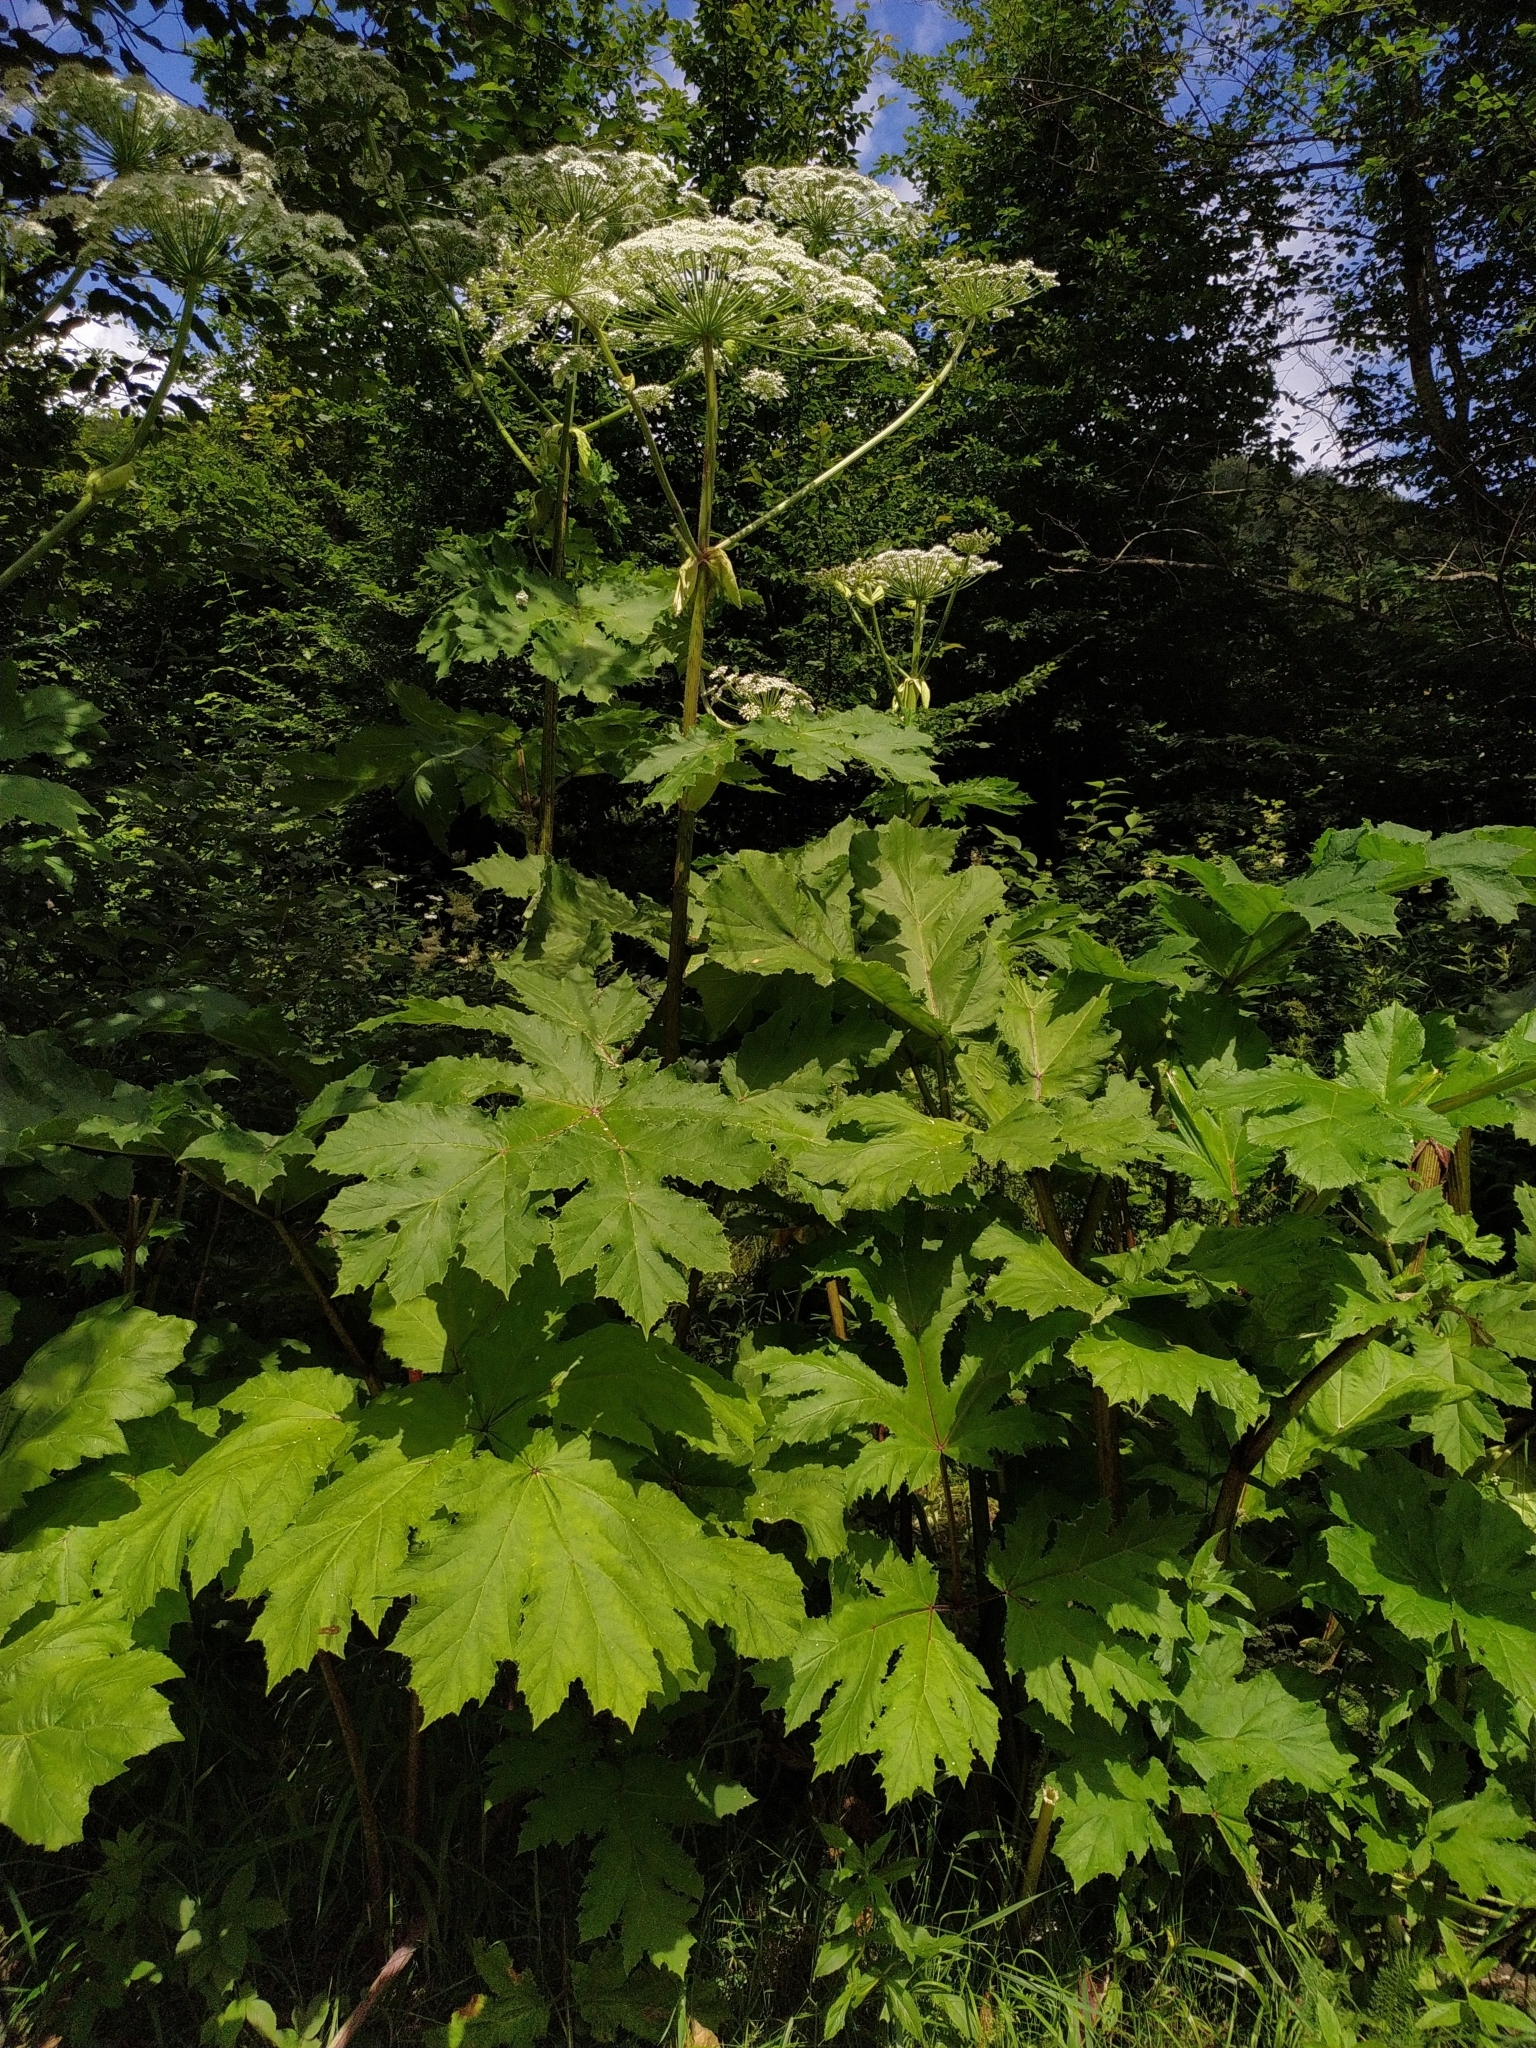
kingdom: Plantae
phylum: Tracheophyta
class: Magnoliopsida
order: Apiales
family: Apiaceae
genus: Heracleum
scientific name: Heracleum sosnowskyi
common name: Sosnowsky's hogweed
